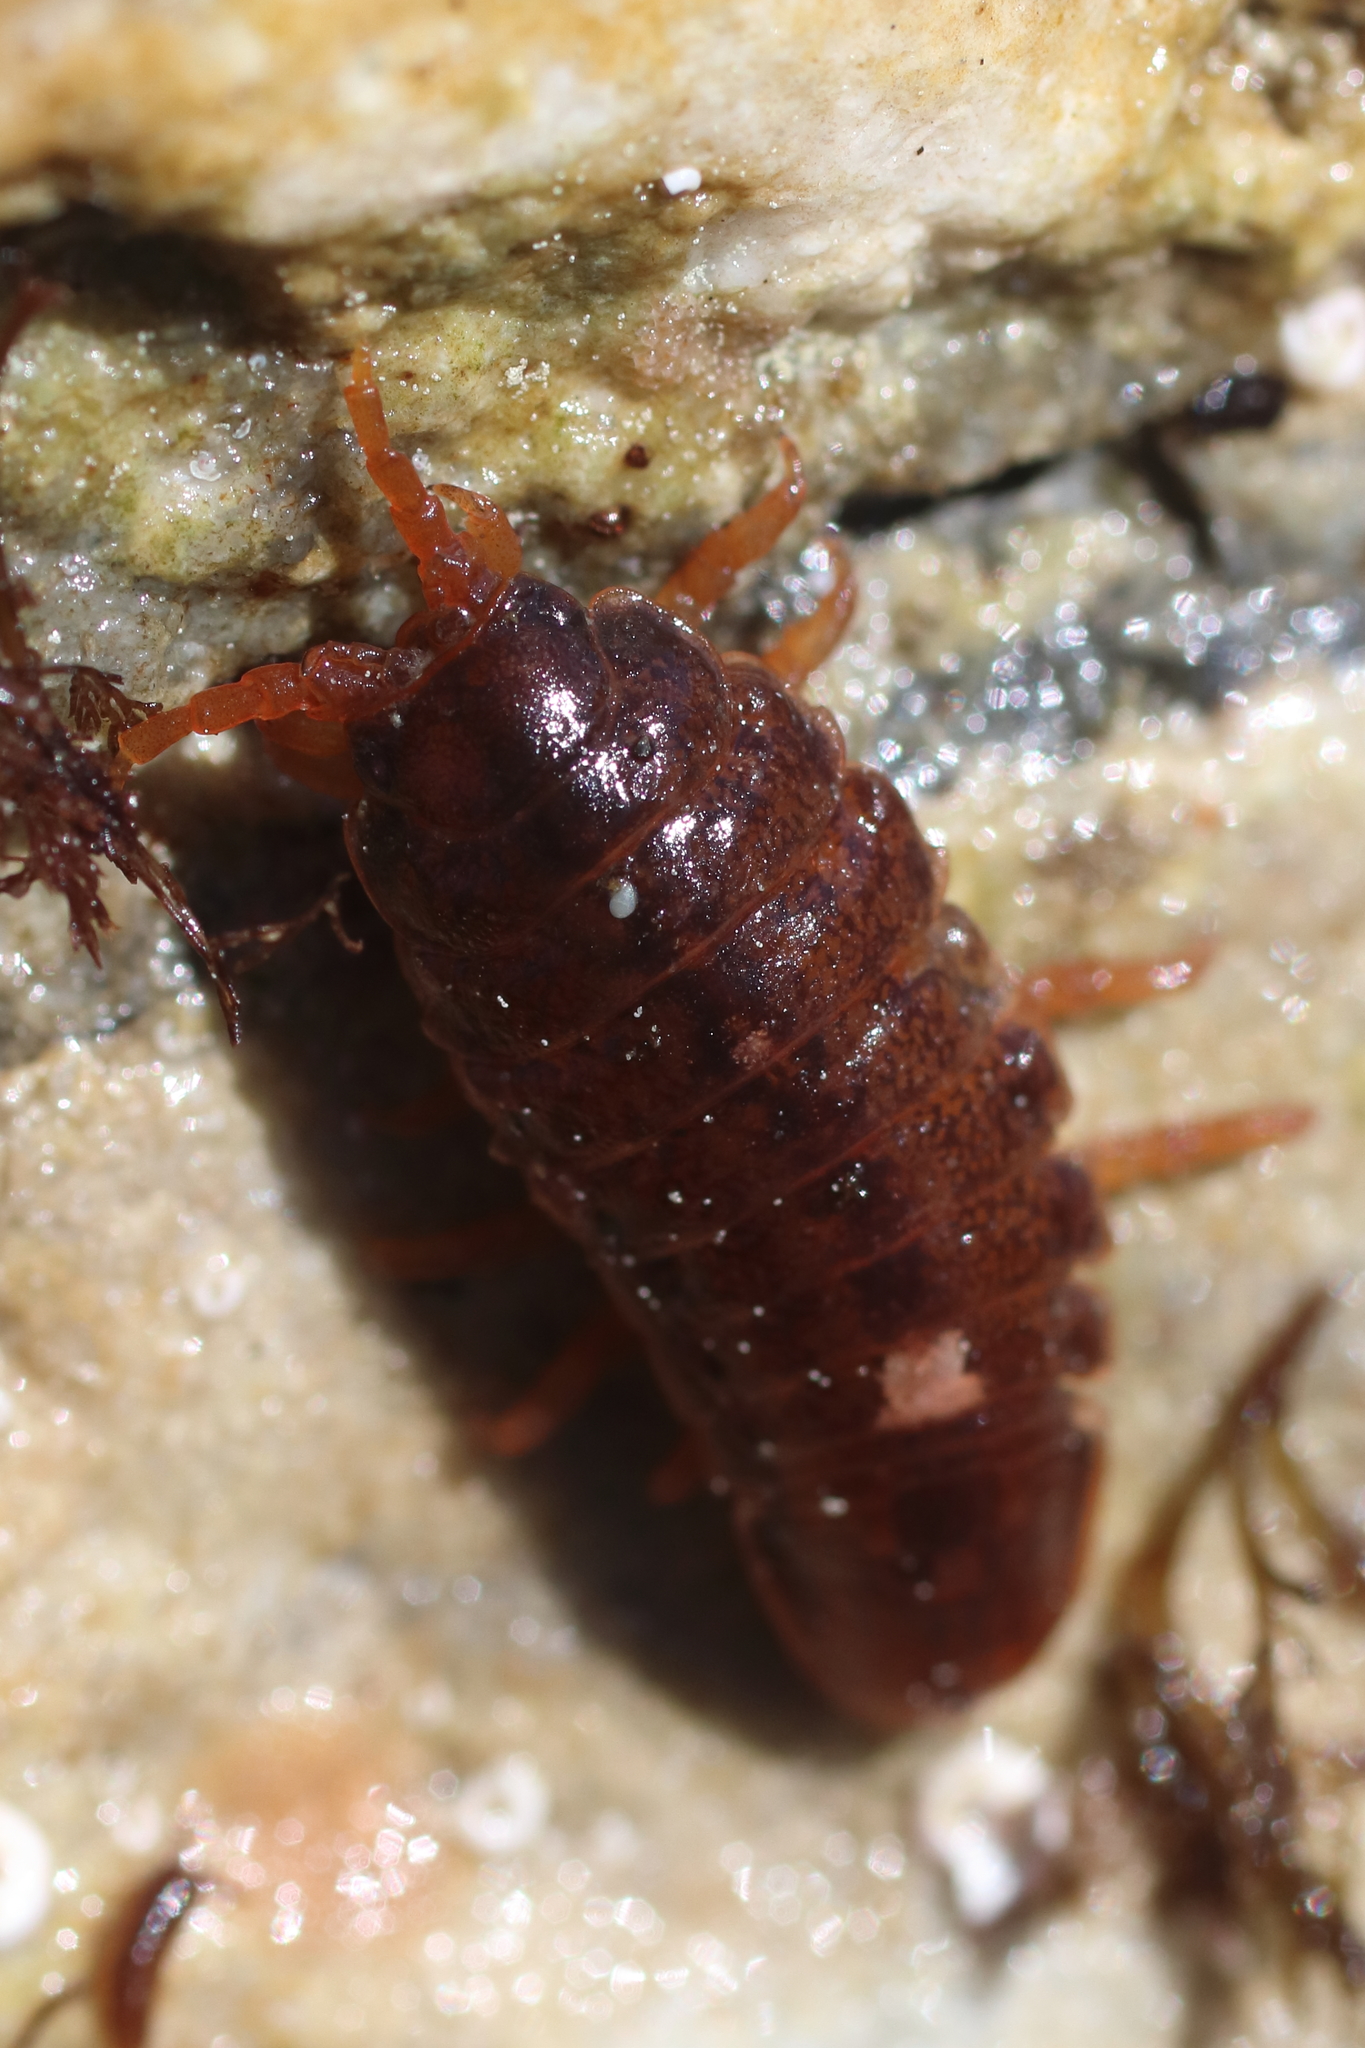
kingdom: Animalia
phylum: Arthropoda
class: Malacostraca
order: Isopoda
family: Idoteidae
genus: Pentidotea
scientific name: Pentidotea wosnesenskii
